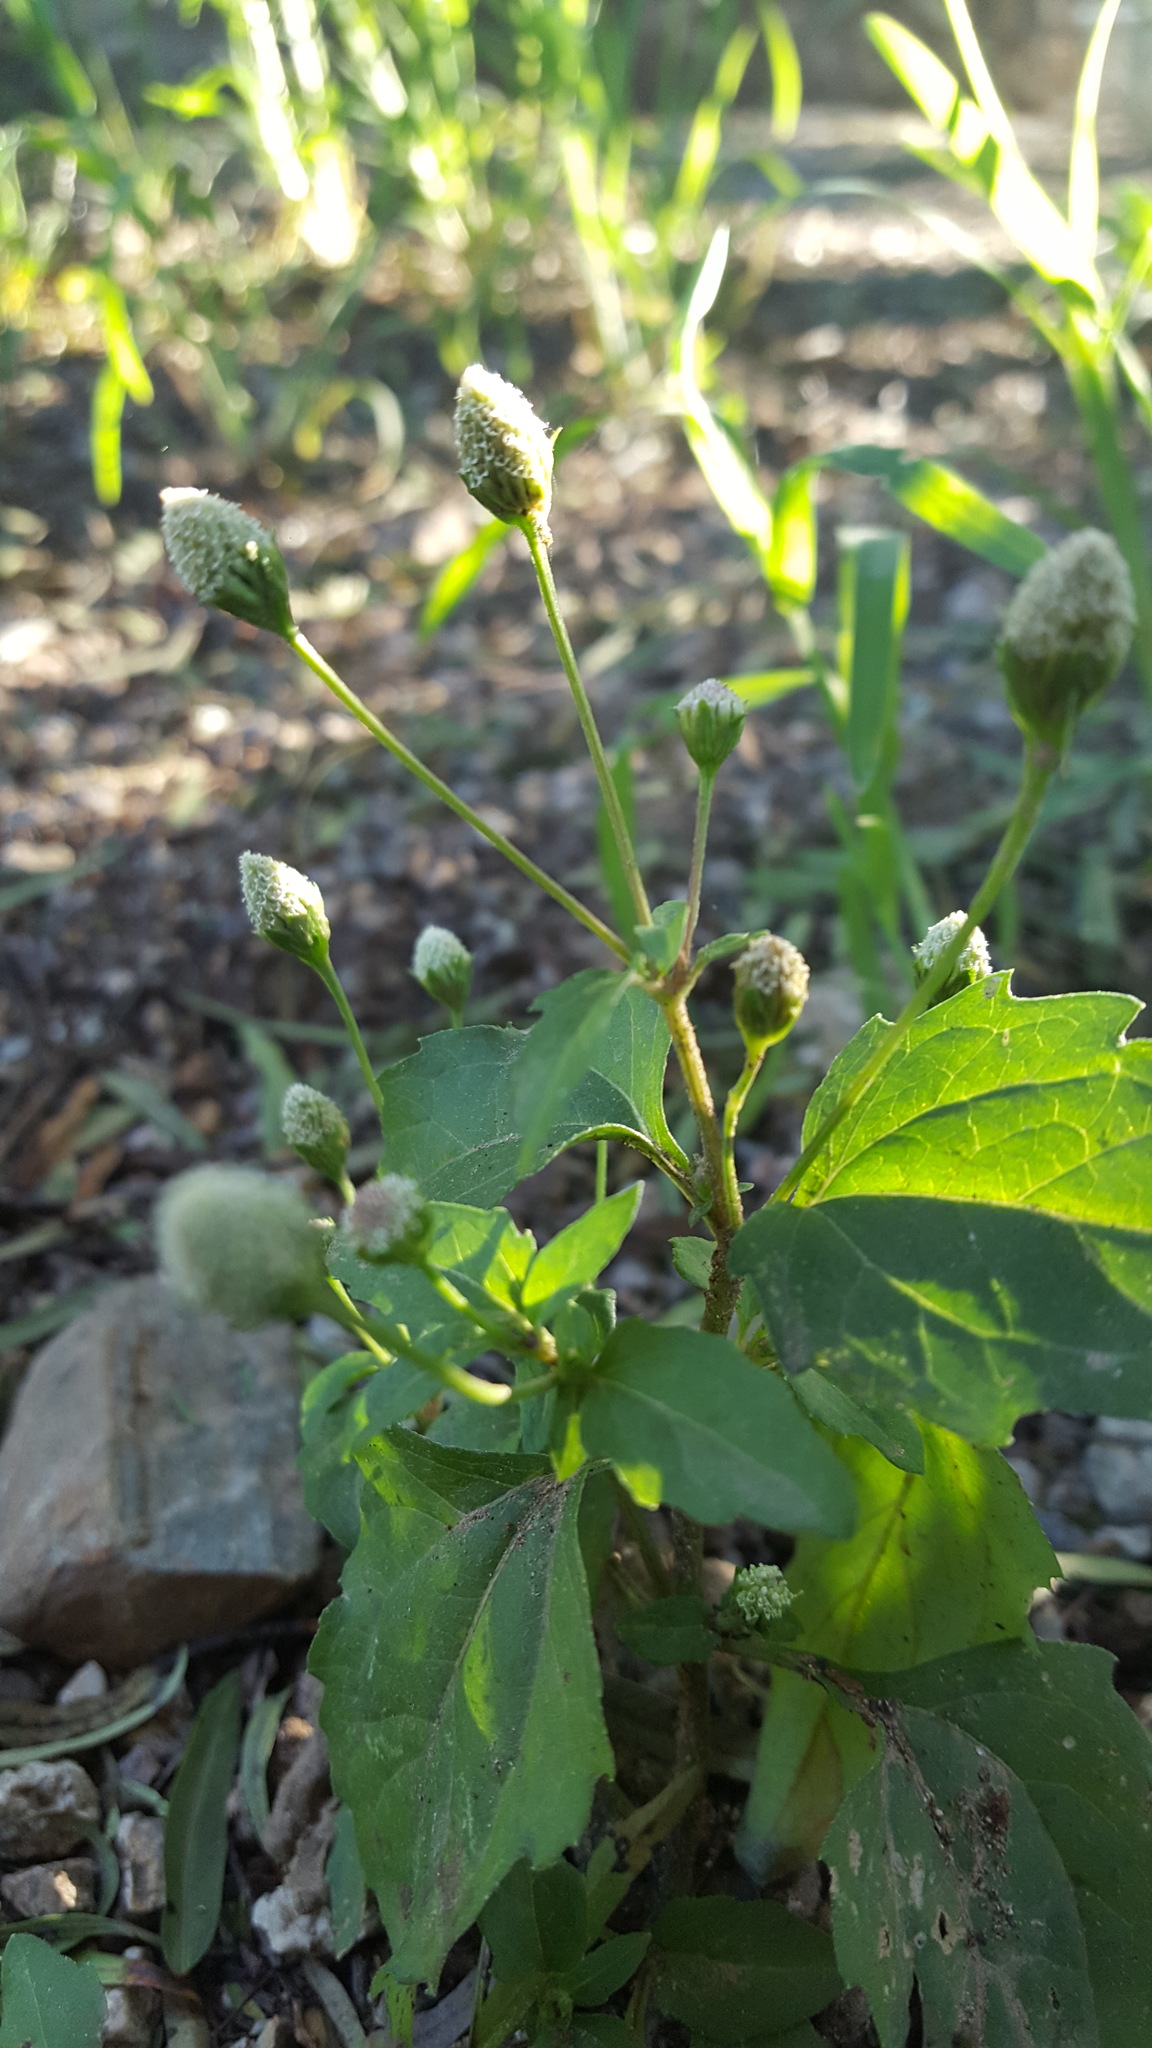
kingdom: Plantae
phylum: Tracheophyta
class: Magnoliopsida
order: Asterales
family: Asteraceae
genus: Acmella
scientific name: Acmella radicans
